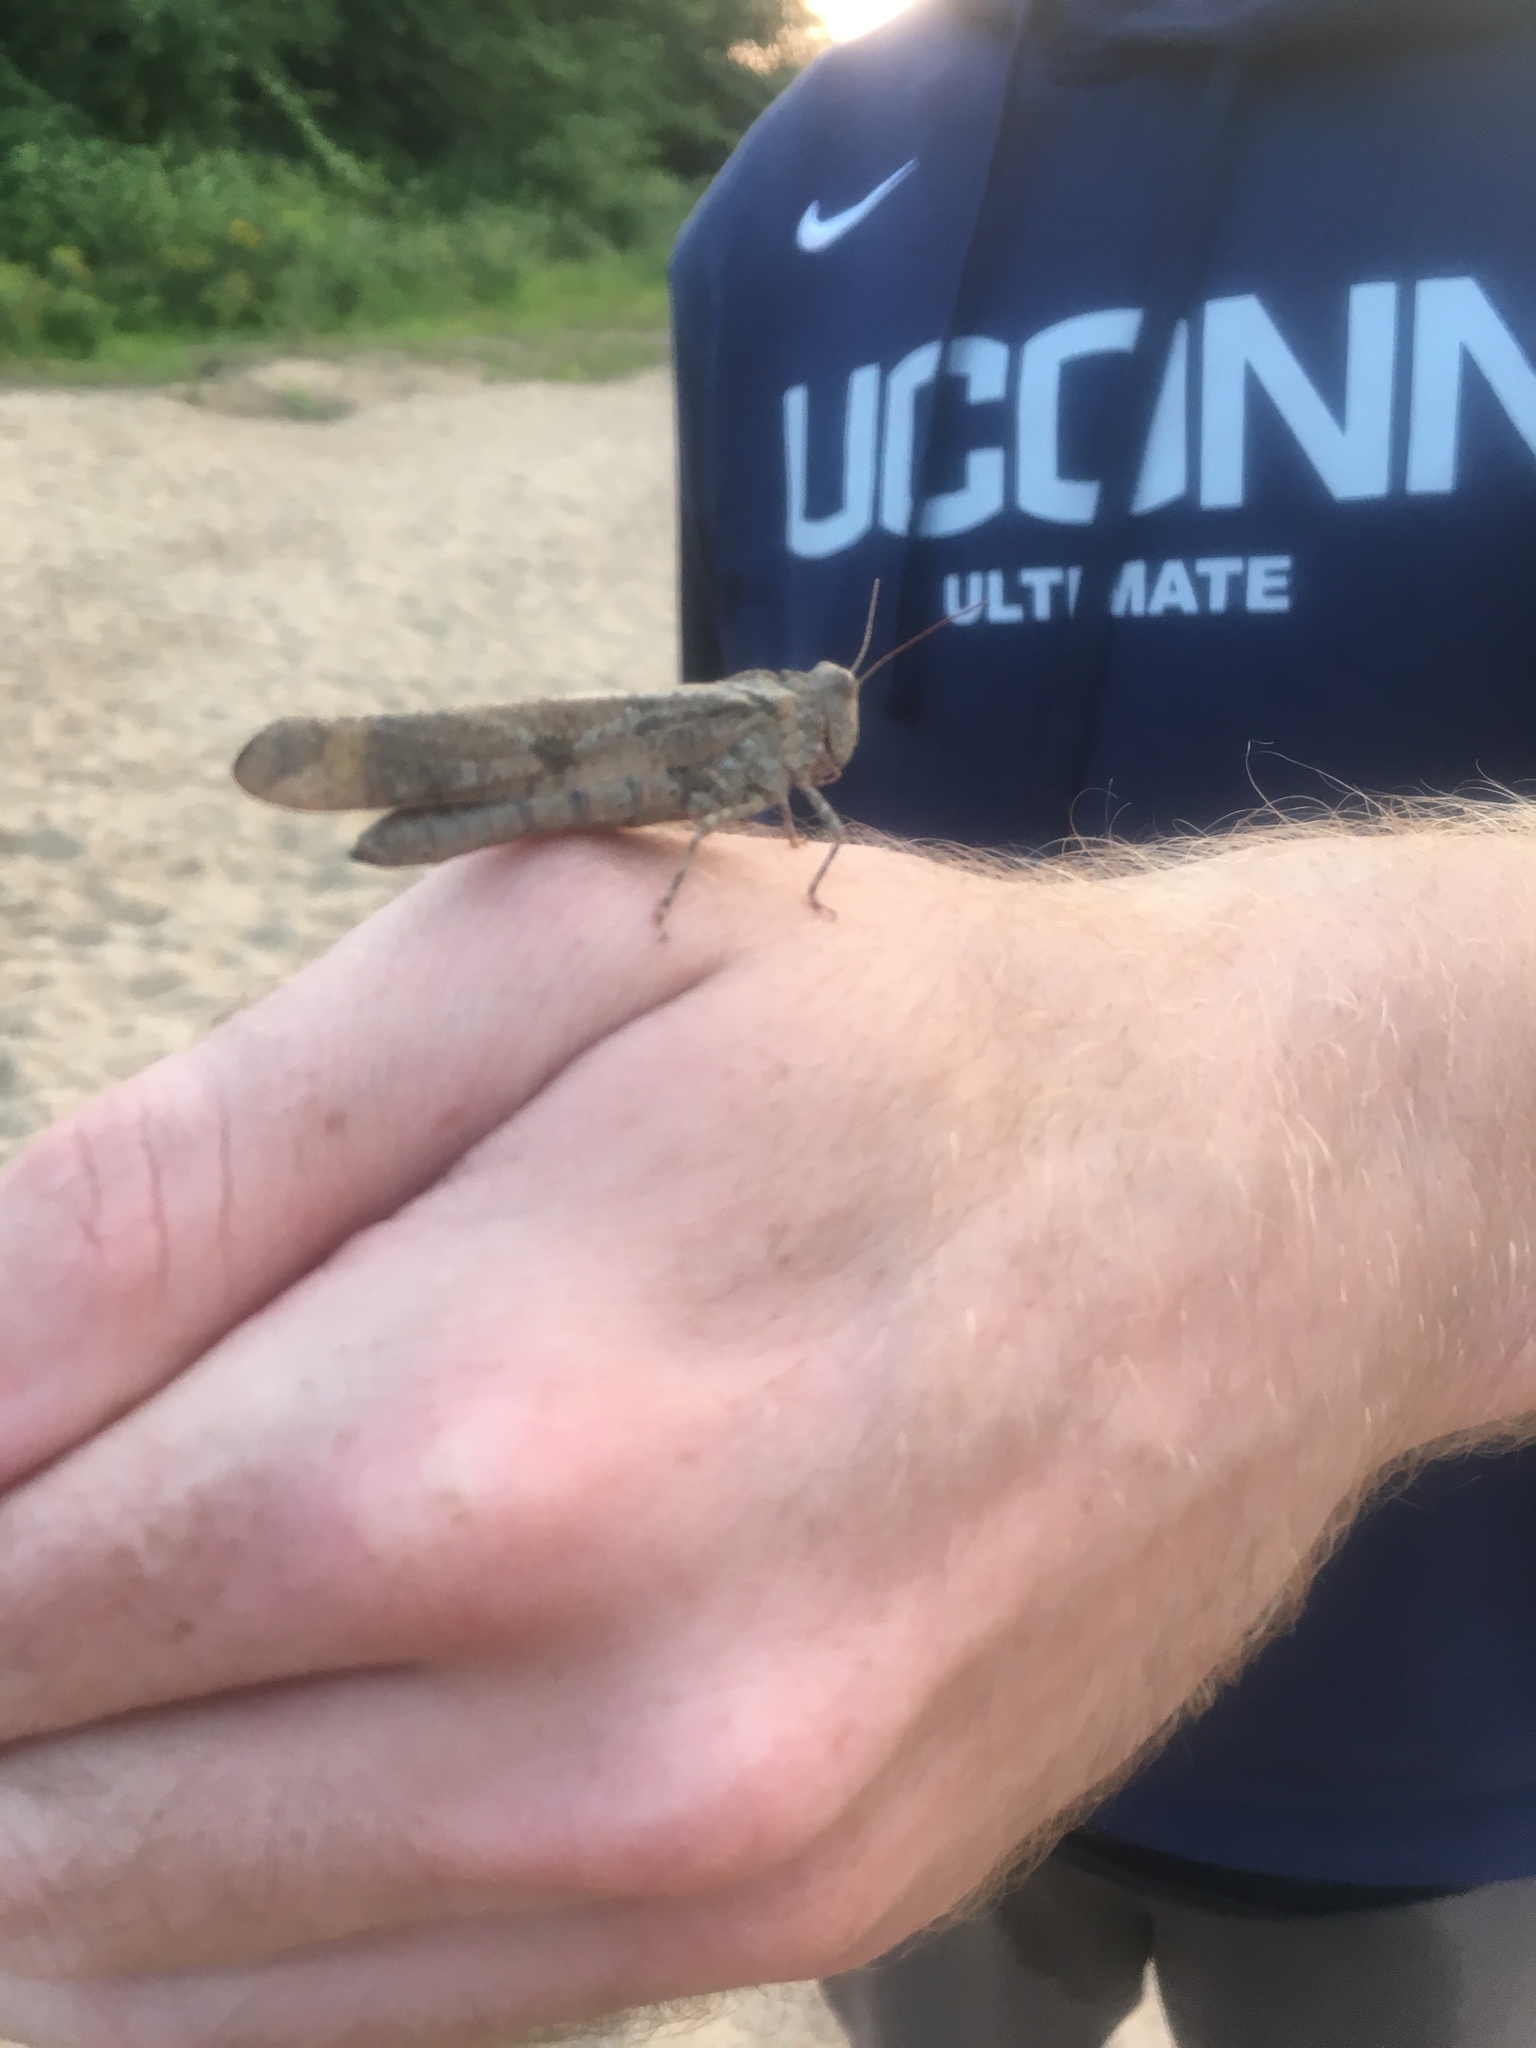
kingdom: Animalia
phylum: Arthropoda
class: Insecta
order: Orthoptera
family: Acrididae
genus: Dissosteira
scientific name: Dissosteira carolina
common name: Carolina grasshopper
